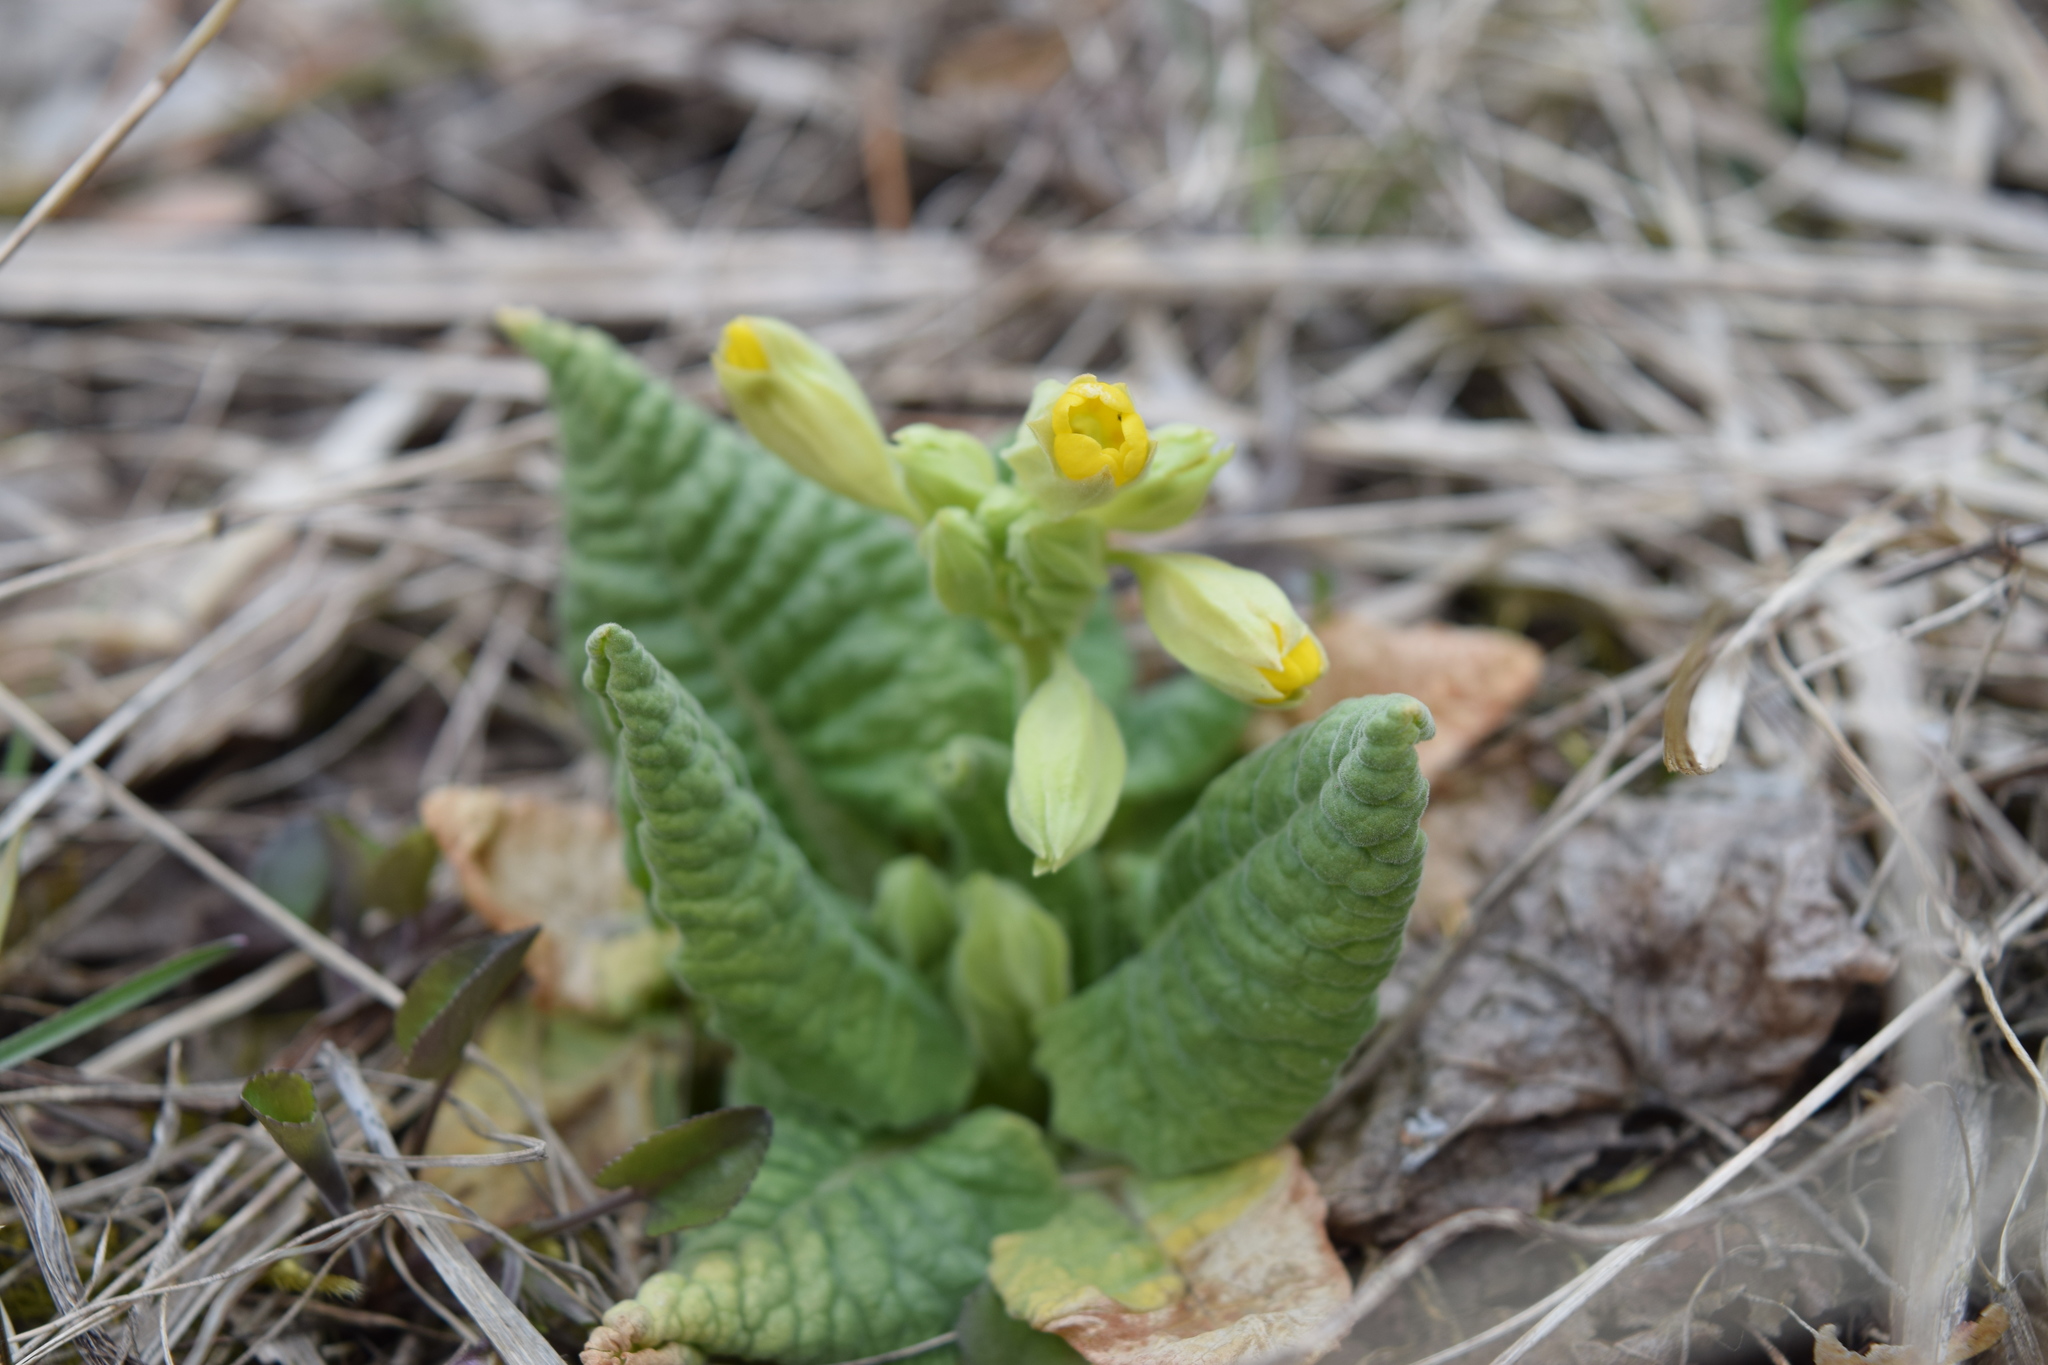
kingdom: Plantae
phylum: Tracheophyta
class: Magnoliopsida
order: Ericales
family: Primulaceae
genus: Primula
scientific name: Primula veris
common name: Cowslip
